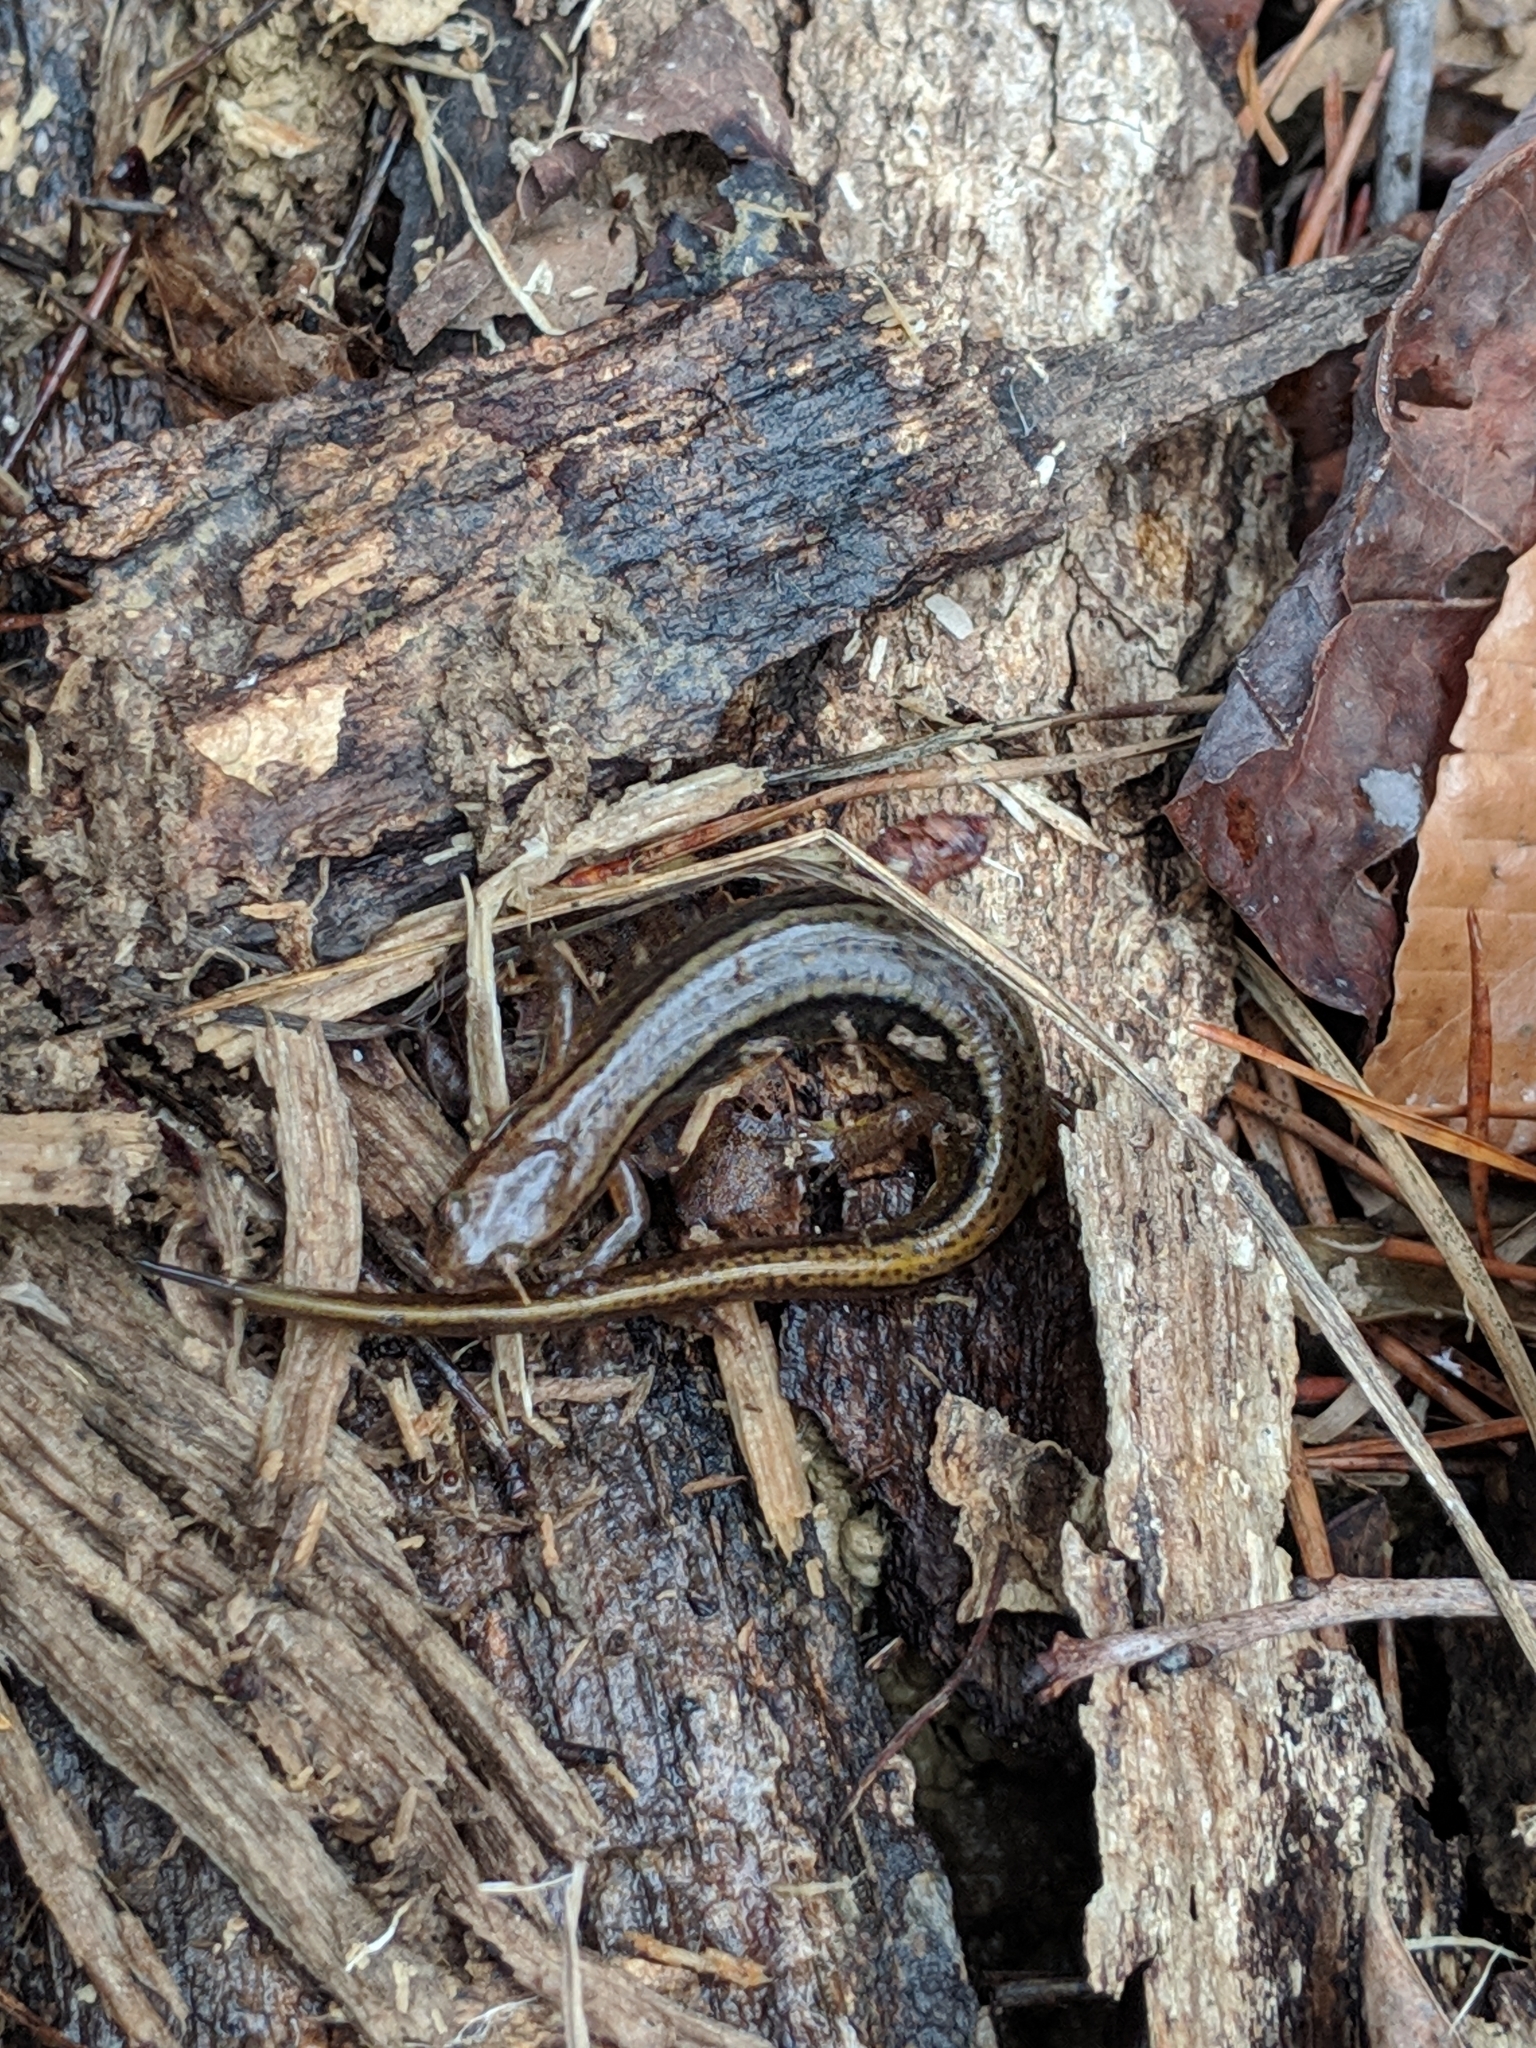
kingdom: Animalia
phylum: Chordata
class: Amphibia
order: Caudata
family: Plethodontidae
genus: Eurycea
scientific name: Eurycea cirrigera
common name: Southern two-lined salamander
